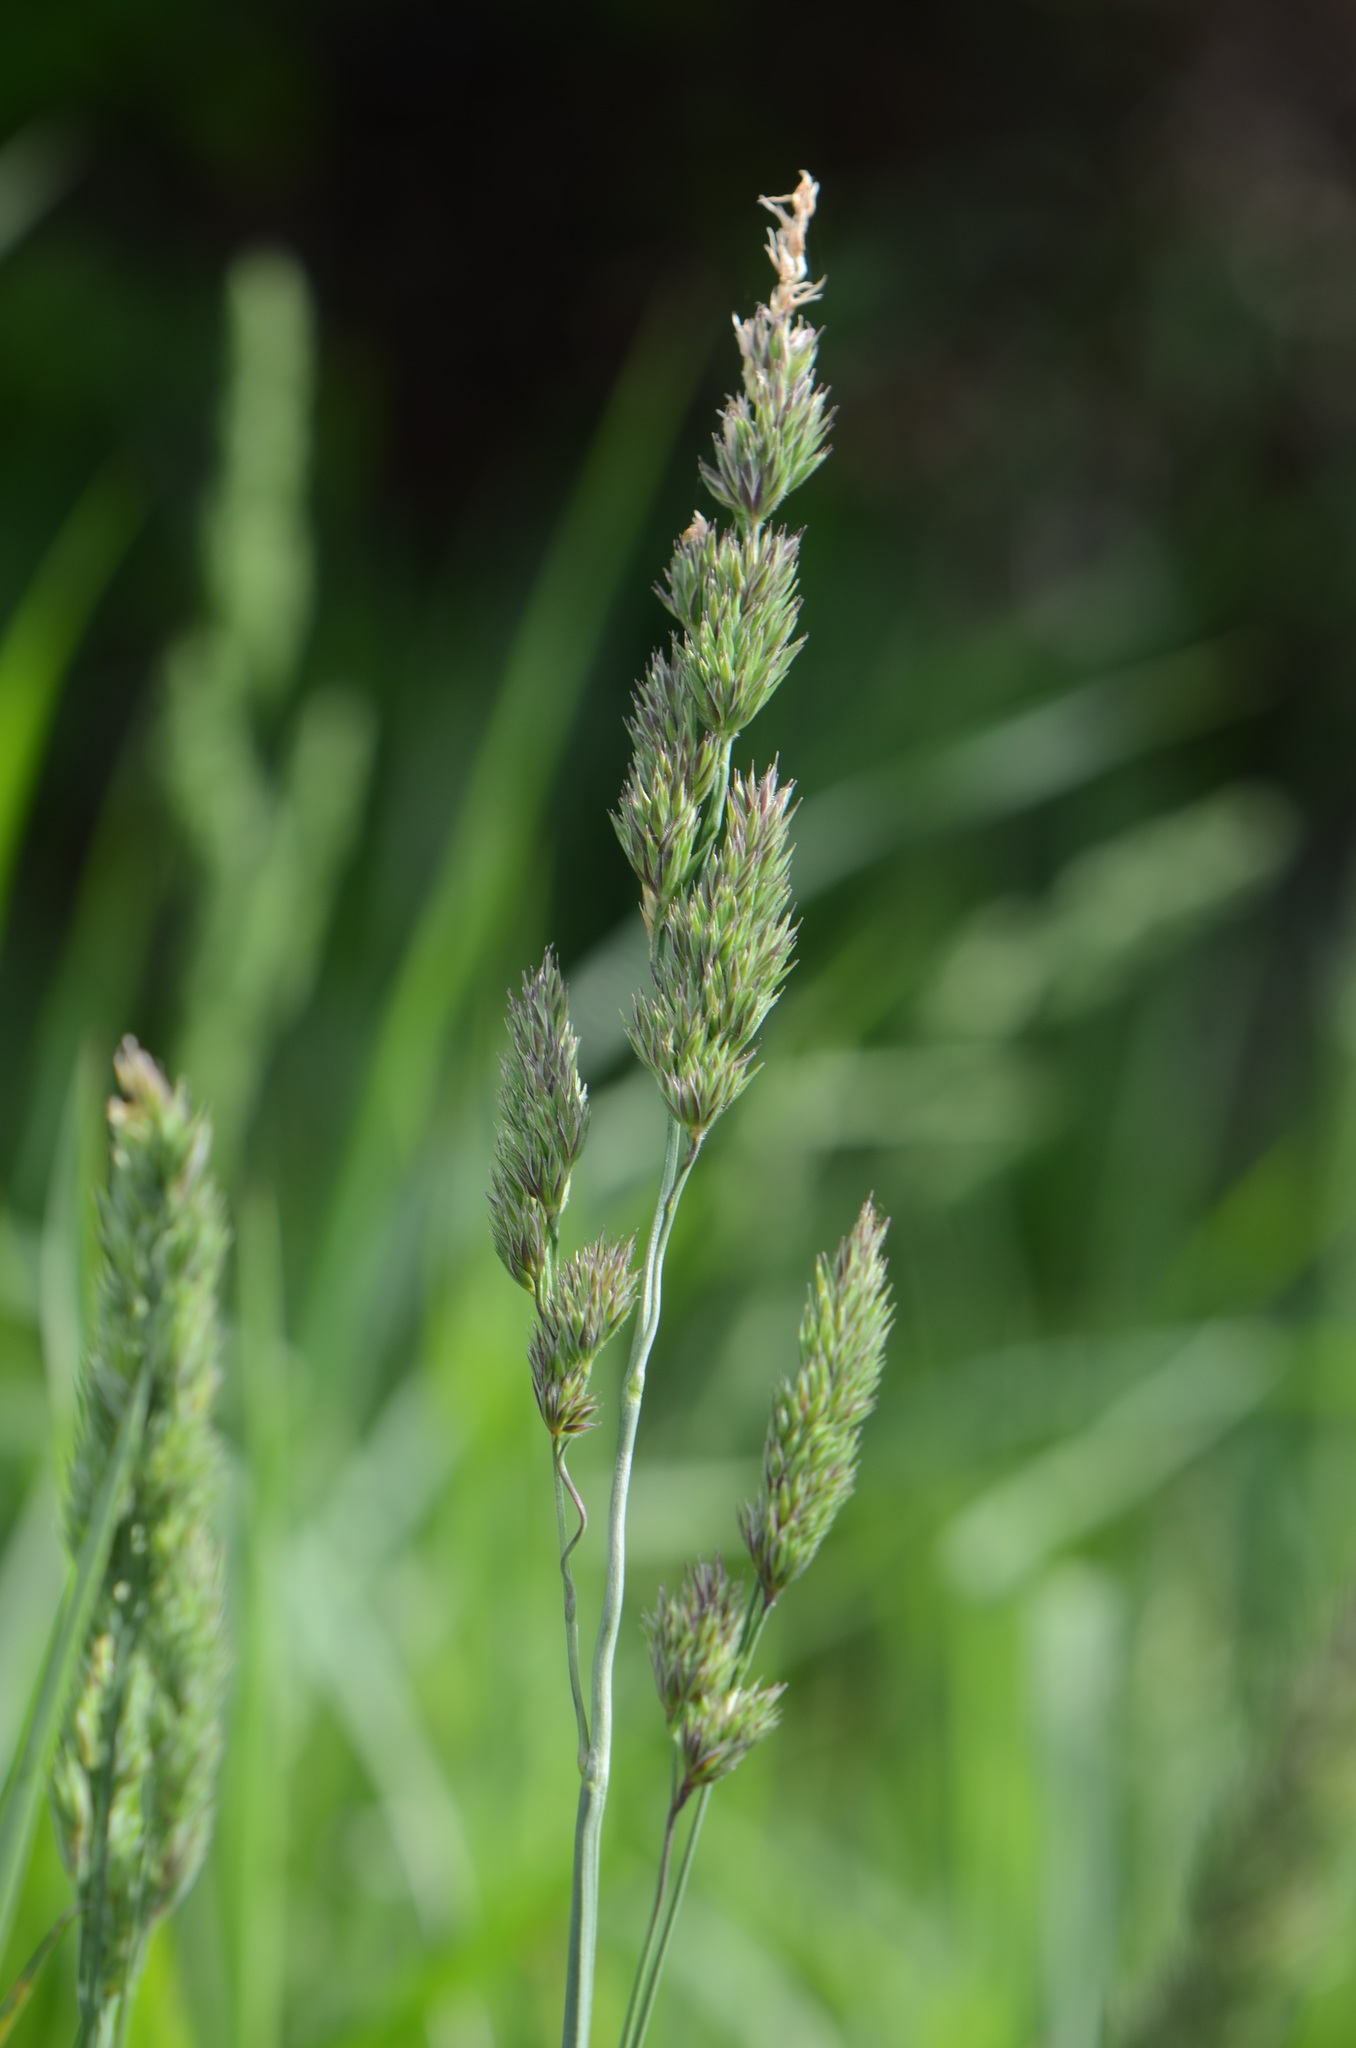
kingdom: Plantae
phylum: Tracheophyta
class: Liliopsida
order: Poales
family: Poaceae
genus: Dactylis
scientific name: Dactylis glomerata
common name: Orchardgrass
